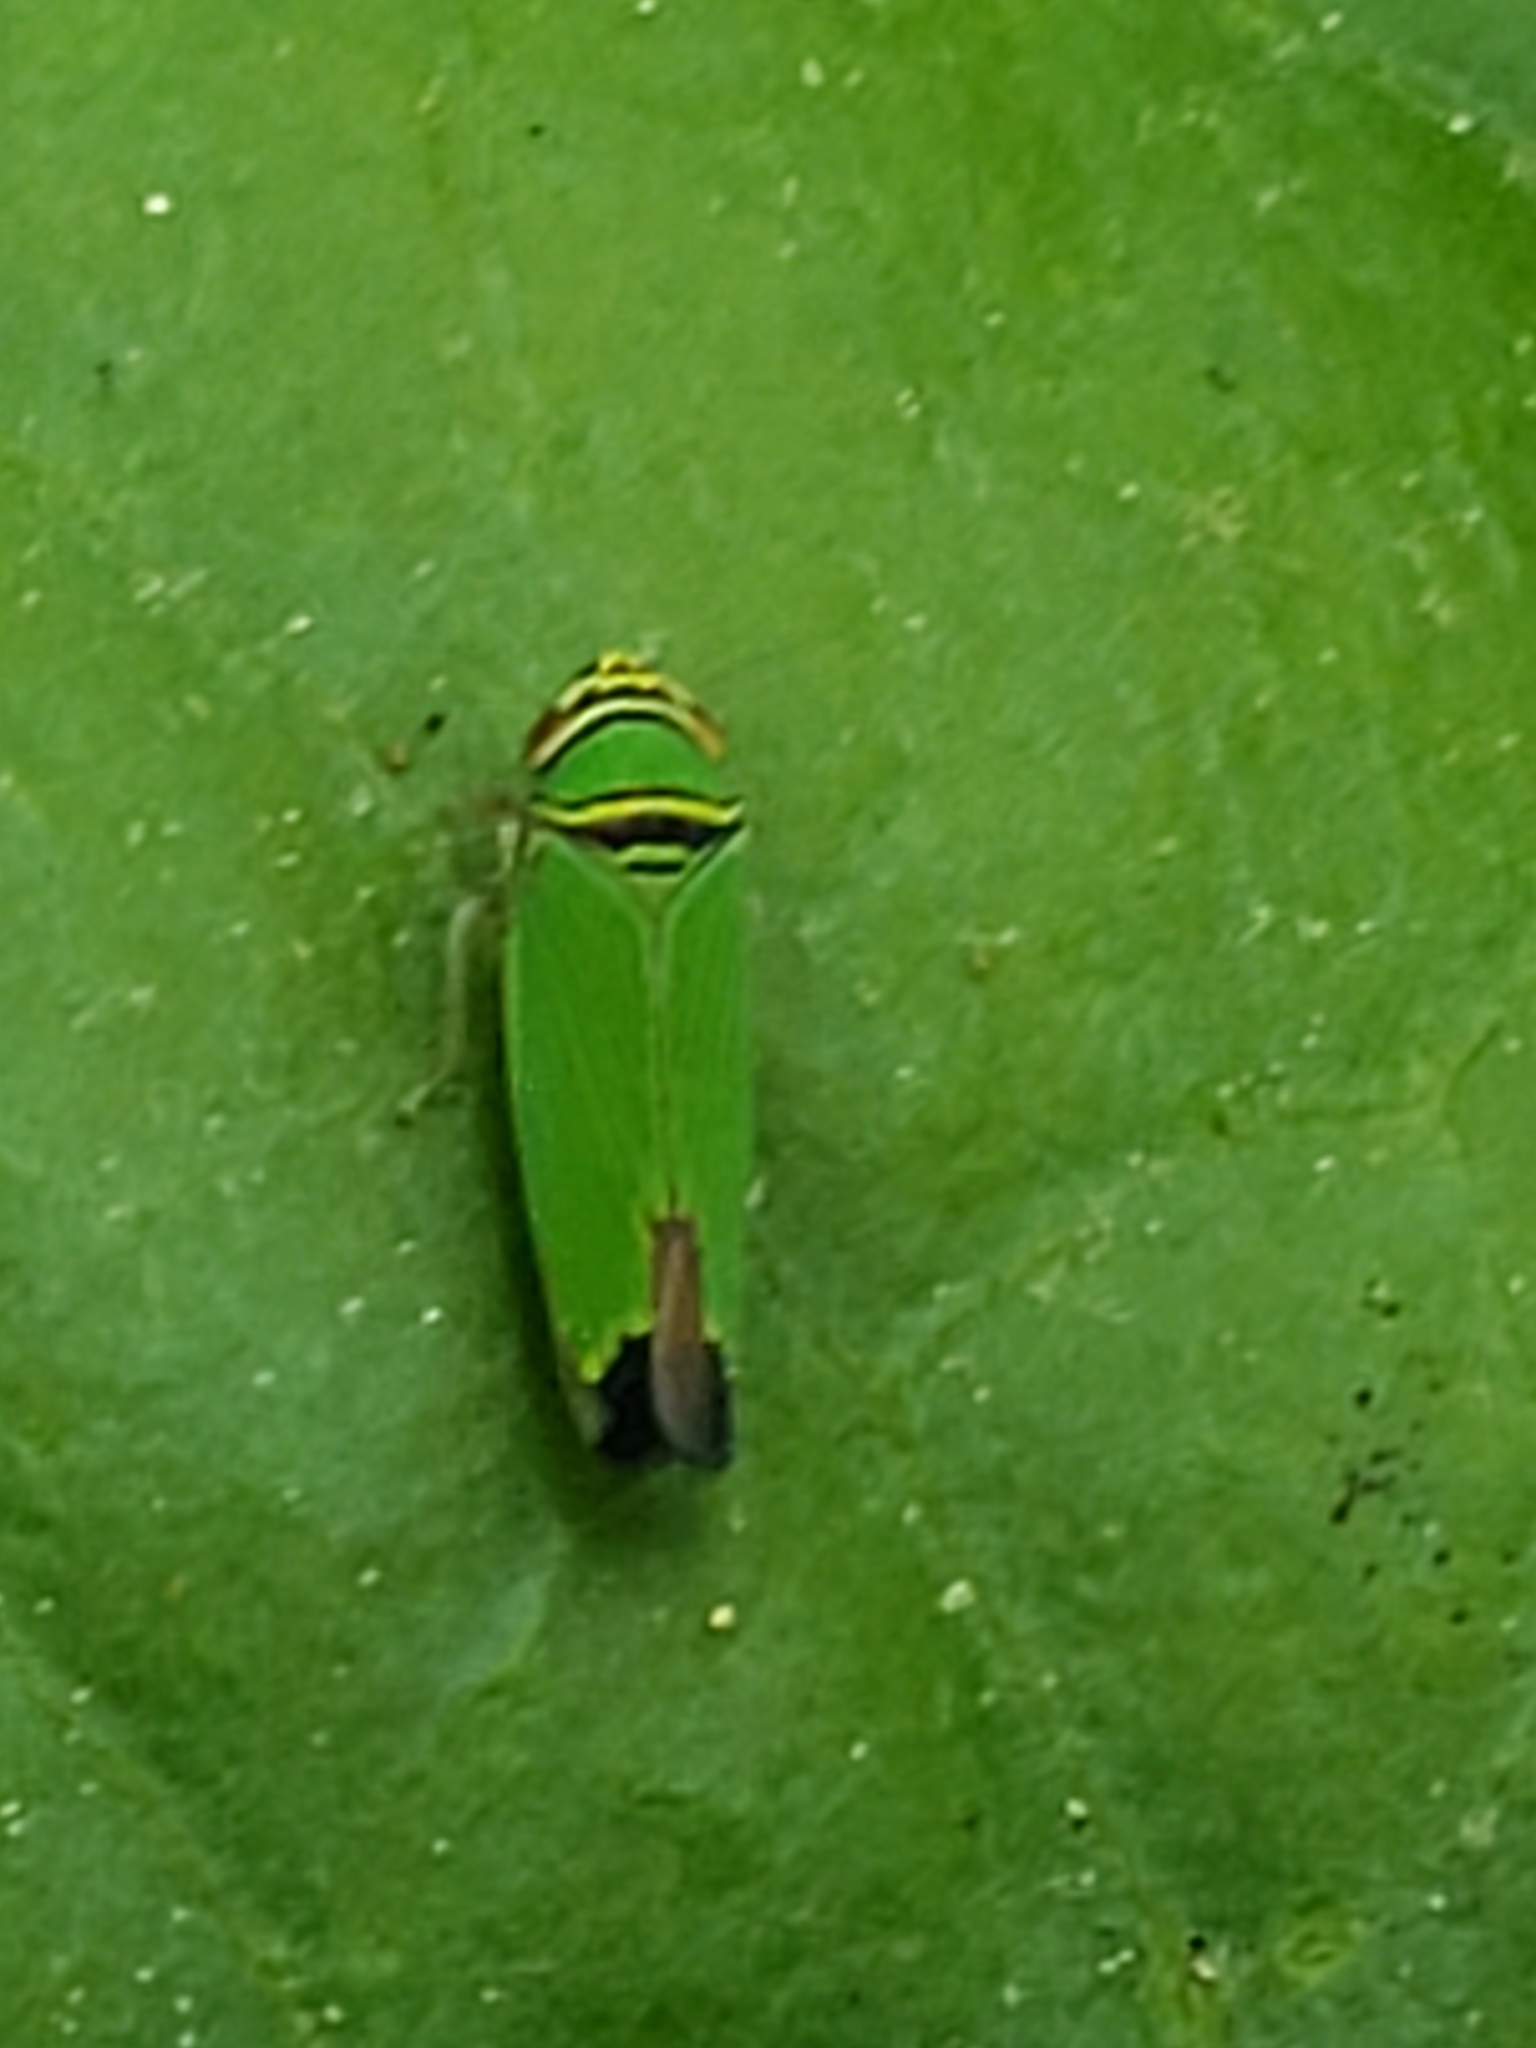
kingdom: Animalia
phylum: Arthropoda
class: Insecta
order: Hemiptera
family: Cicadellidae
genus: Tylozygus
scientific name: Tylozygus geometricus
